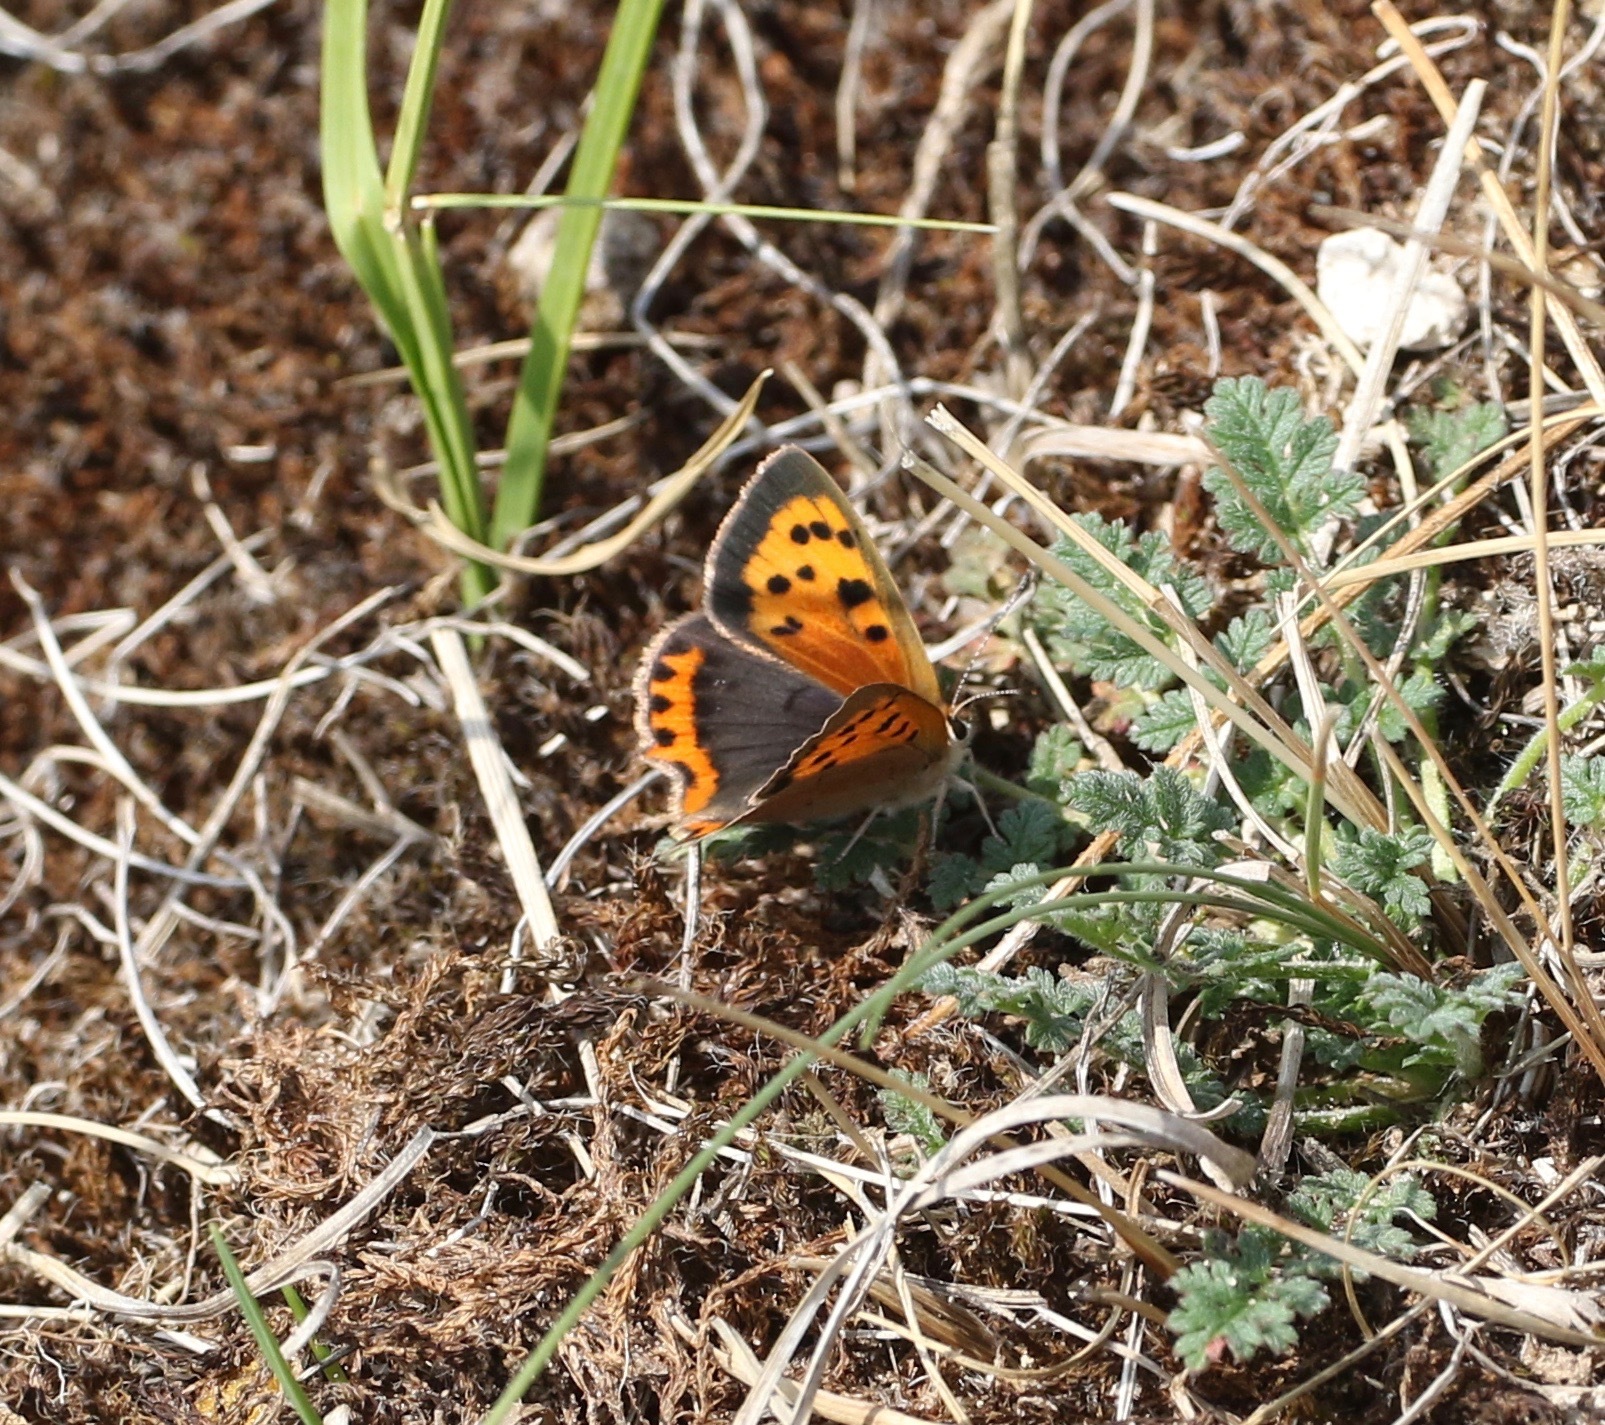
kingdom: Animalia
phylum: Arthropoda
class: Insecta
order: Lepidoptera
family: Lycaenidae
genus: Lycaena
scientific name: Lycaena phlaeas
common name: Small copper
